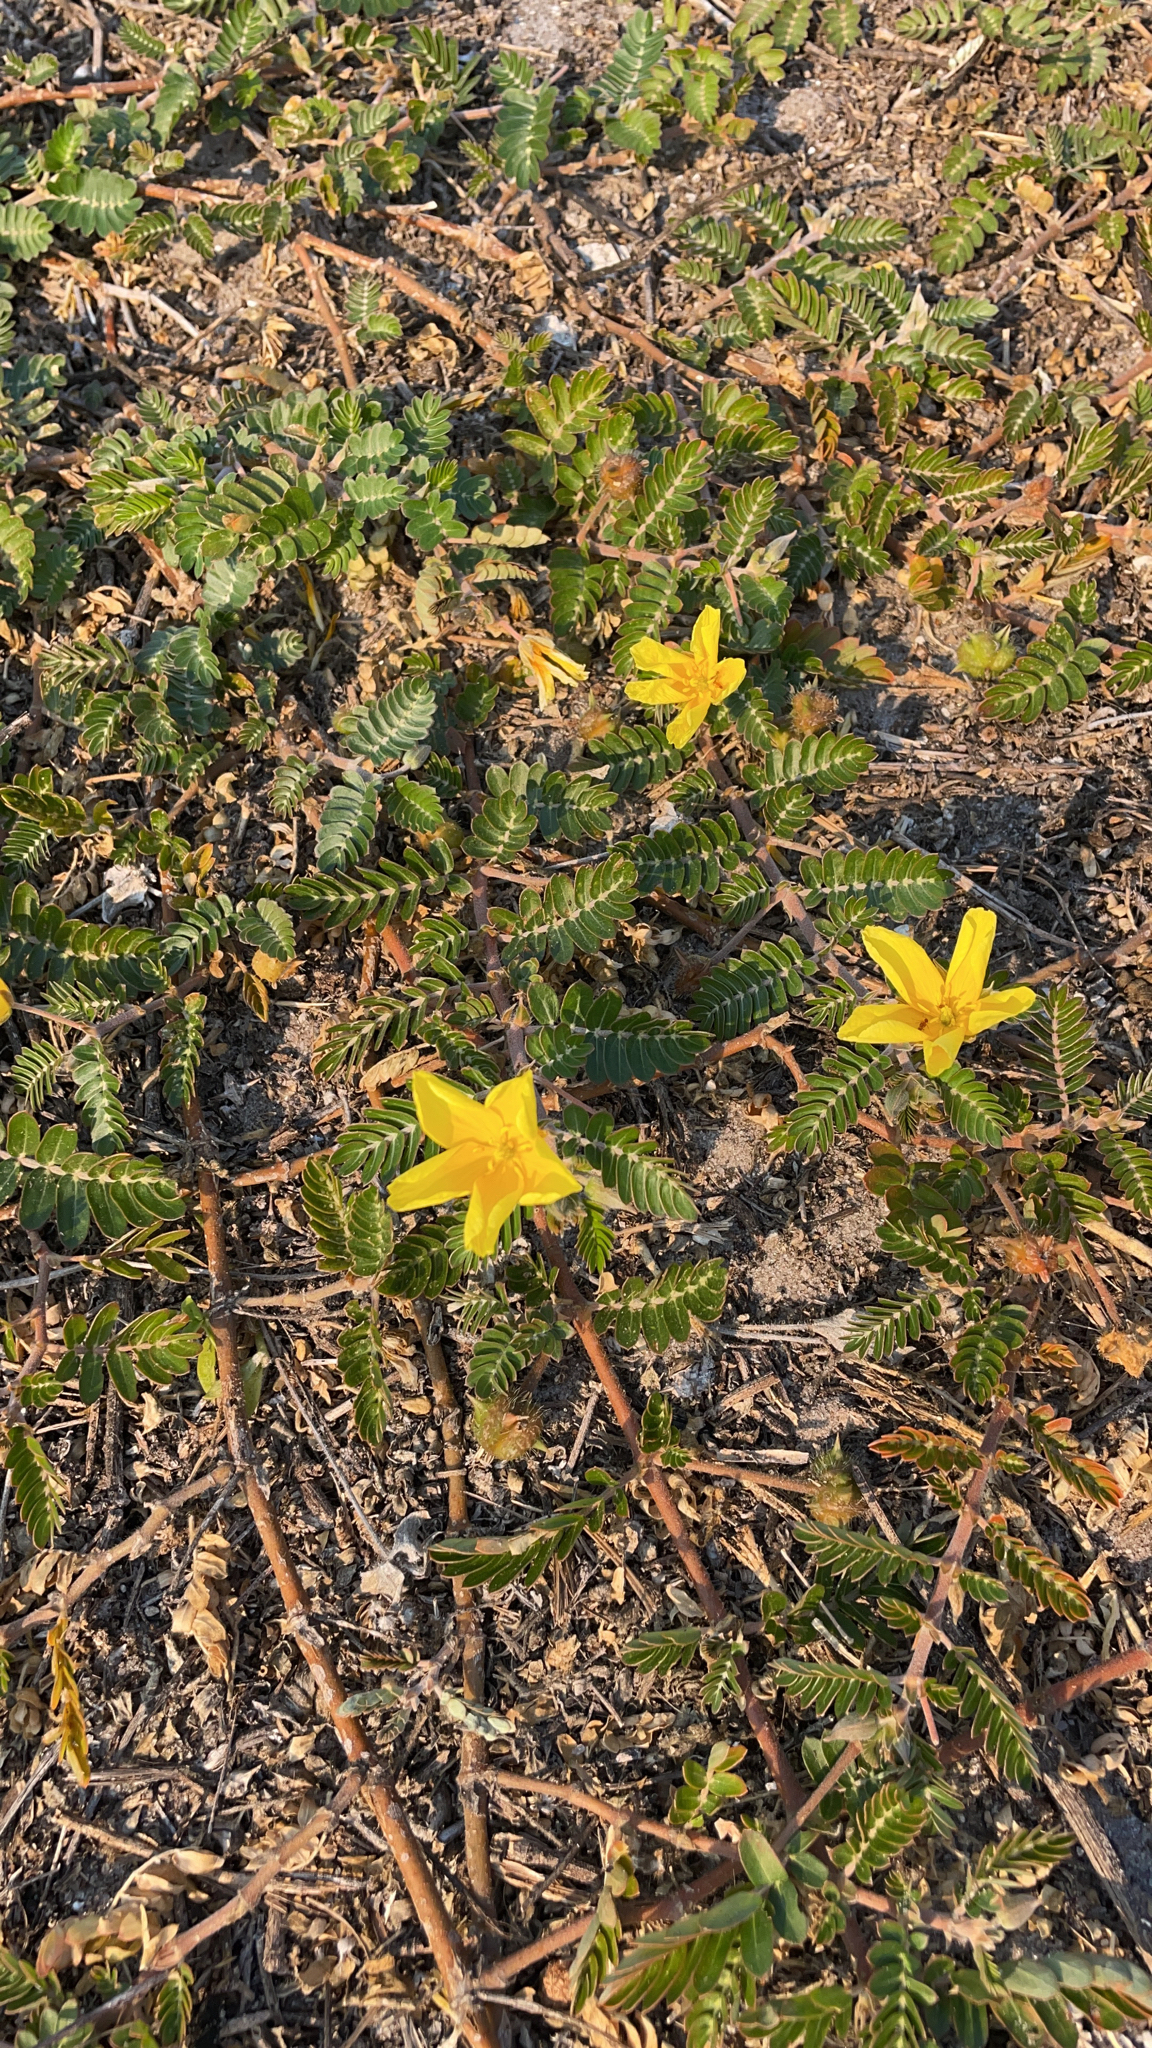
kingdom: Plantae
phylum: Tracheophyta
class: Magnoliopsida
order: Zygophyllales
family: Zygophyllaceae
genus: Tribulus
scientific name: Tribulus cistoides
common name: Jamaican feverplant
